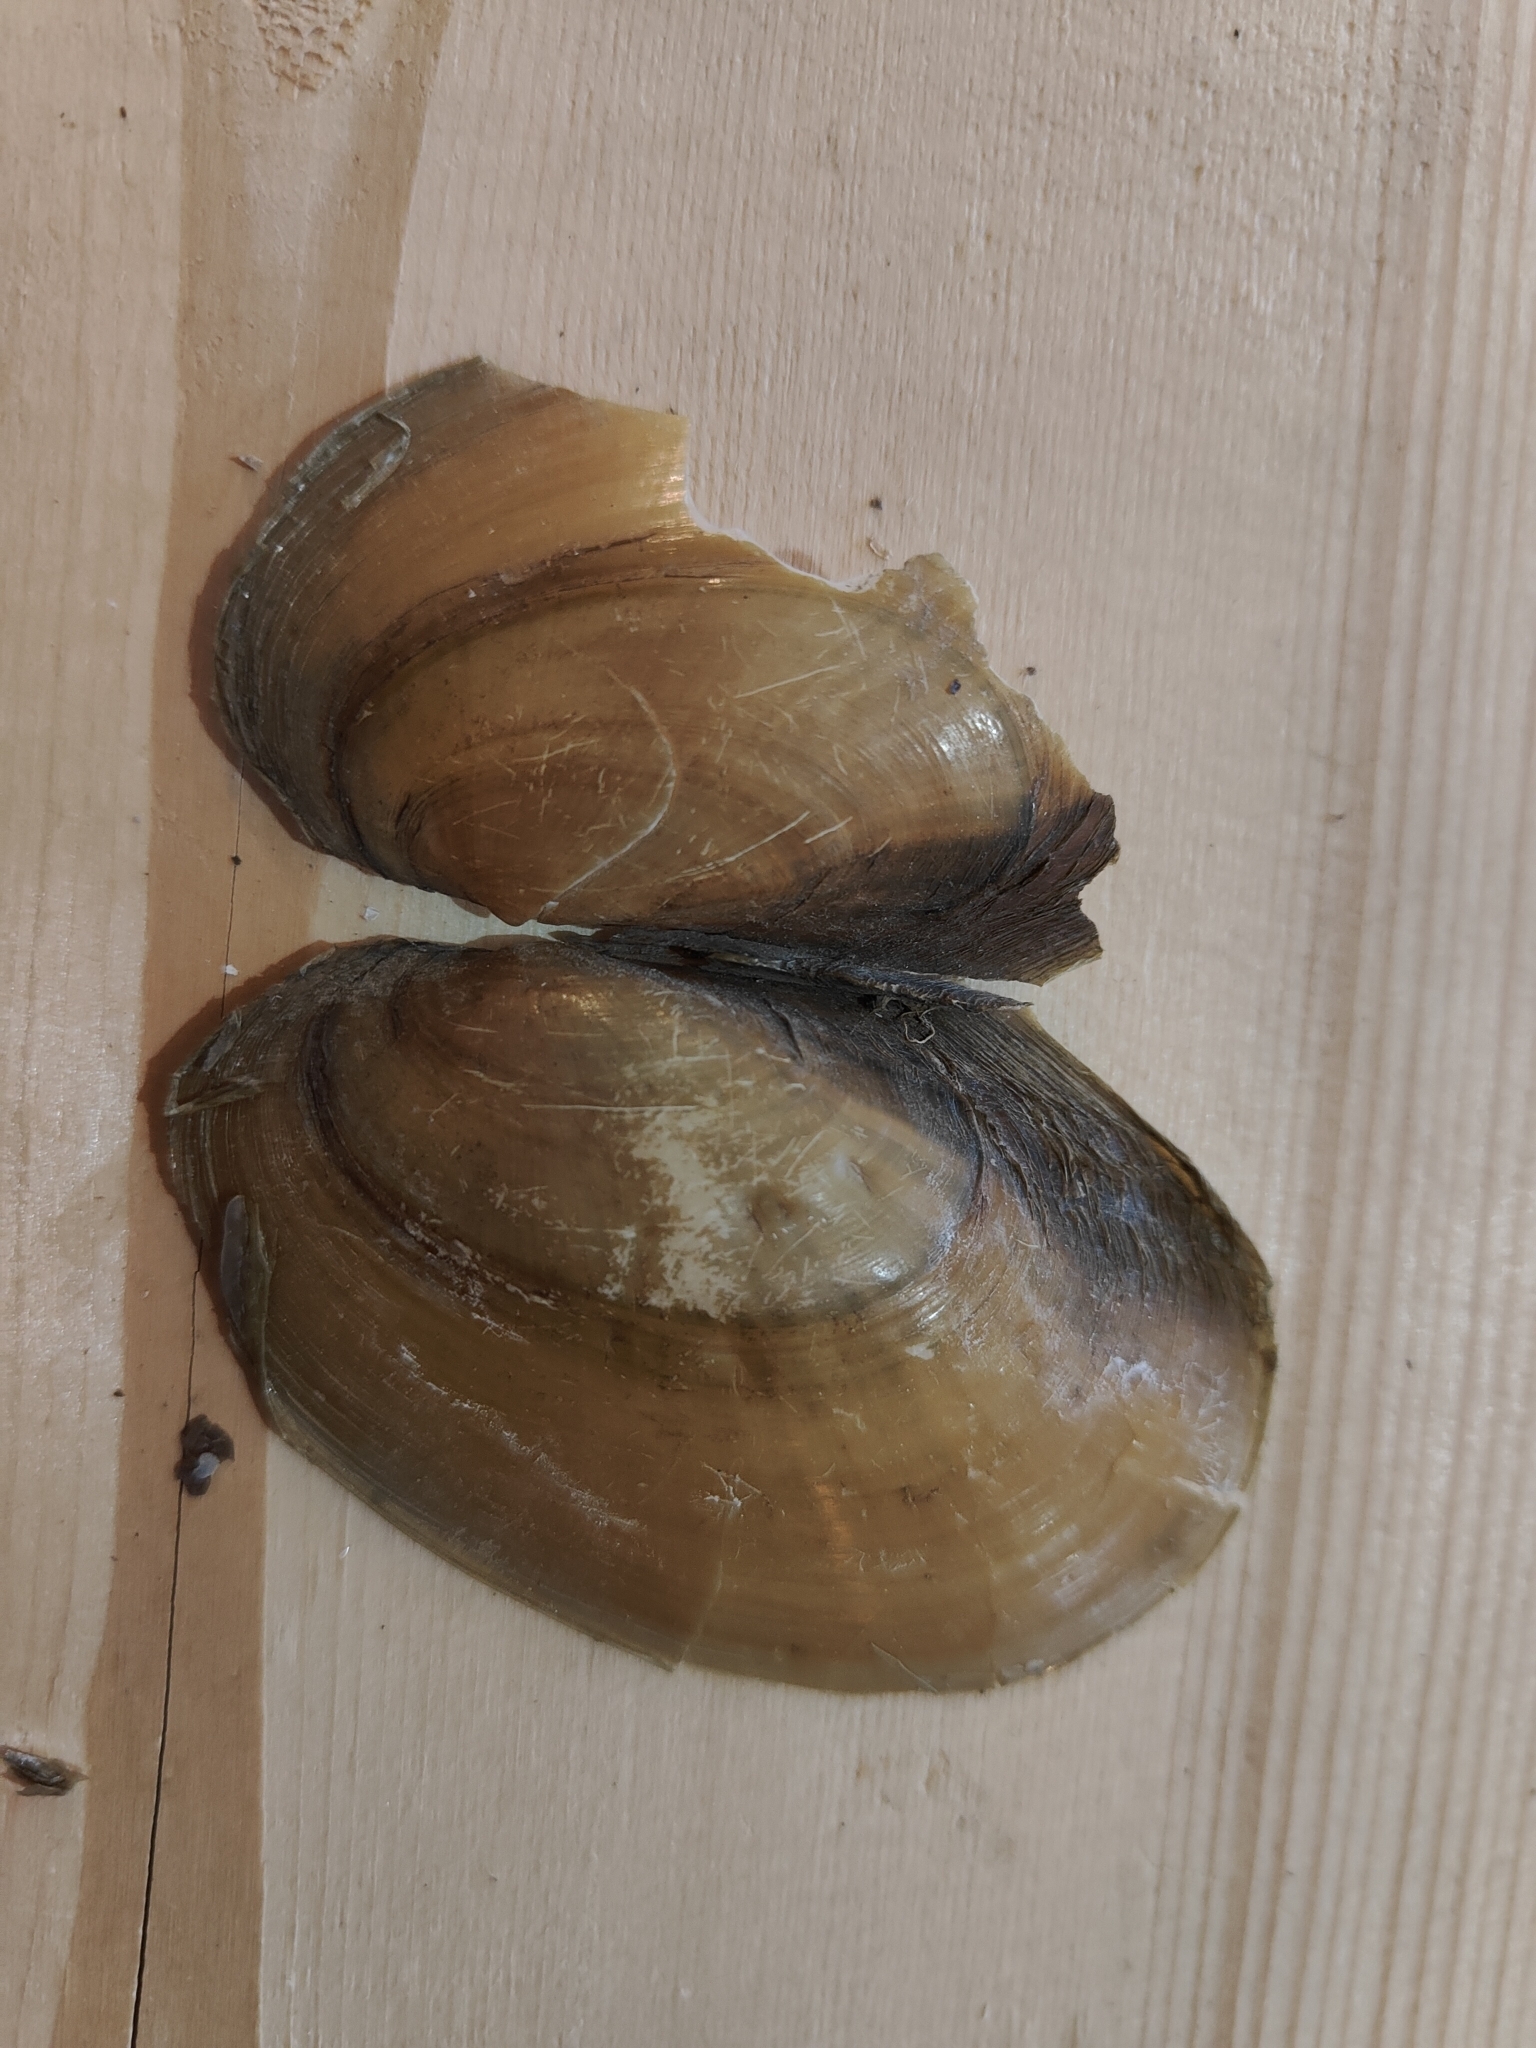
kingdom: Animalia
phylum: Mollusca
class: Bivalvia
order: Unionida
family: Unionidae
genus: Potamilus
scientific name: Potamilus fragilis
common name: Fragile papershell
